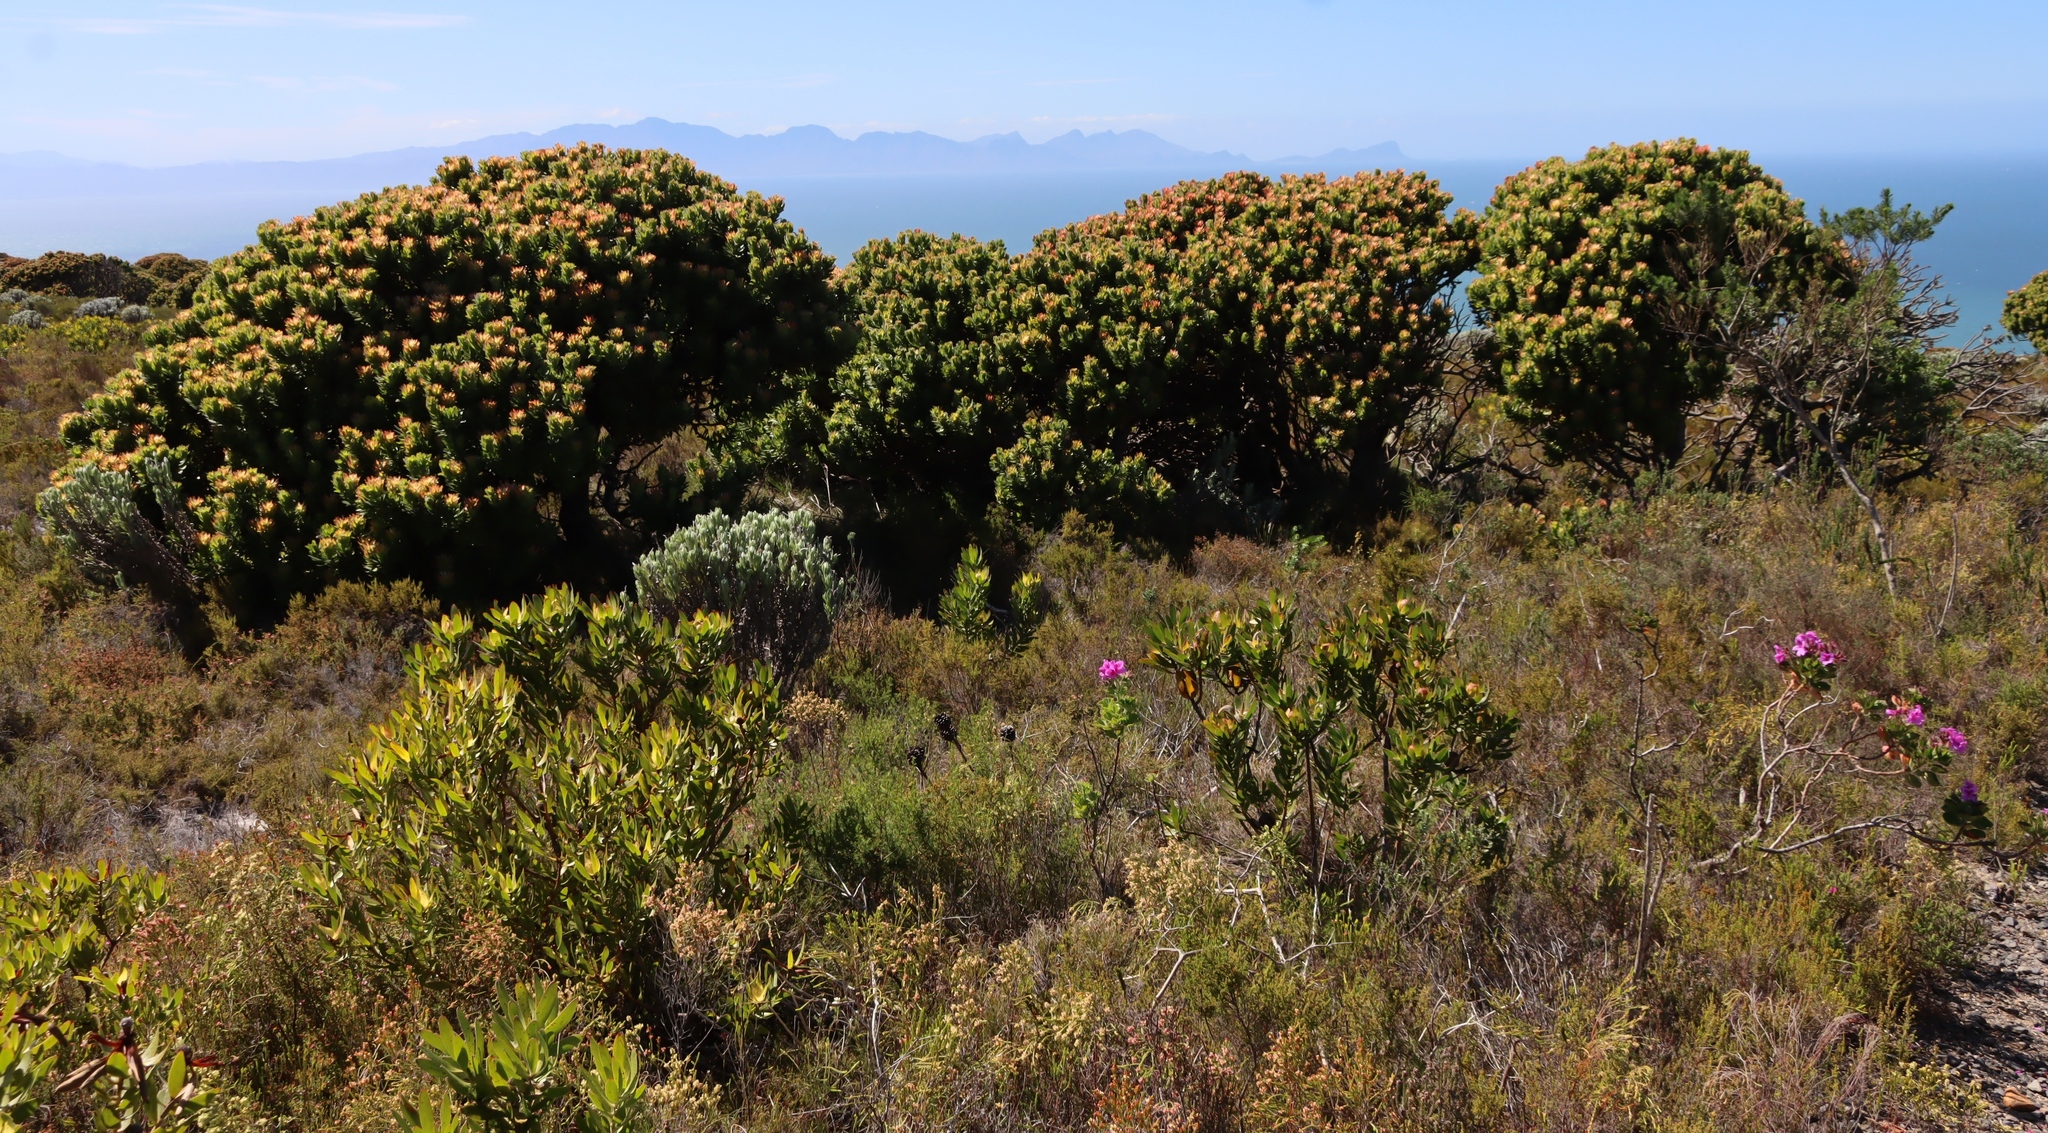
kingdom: Plantae
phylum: Tracheophyta
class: Magnoliopsida
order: Proteales
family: Proteaceae
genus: Mimetes
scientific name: Mimetes fimbriifolius
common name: Fringed bottlebrush
